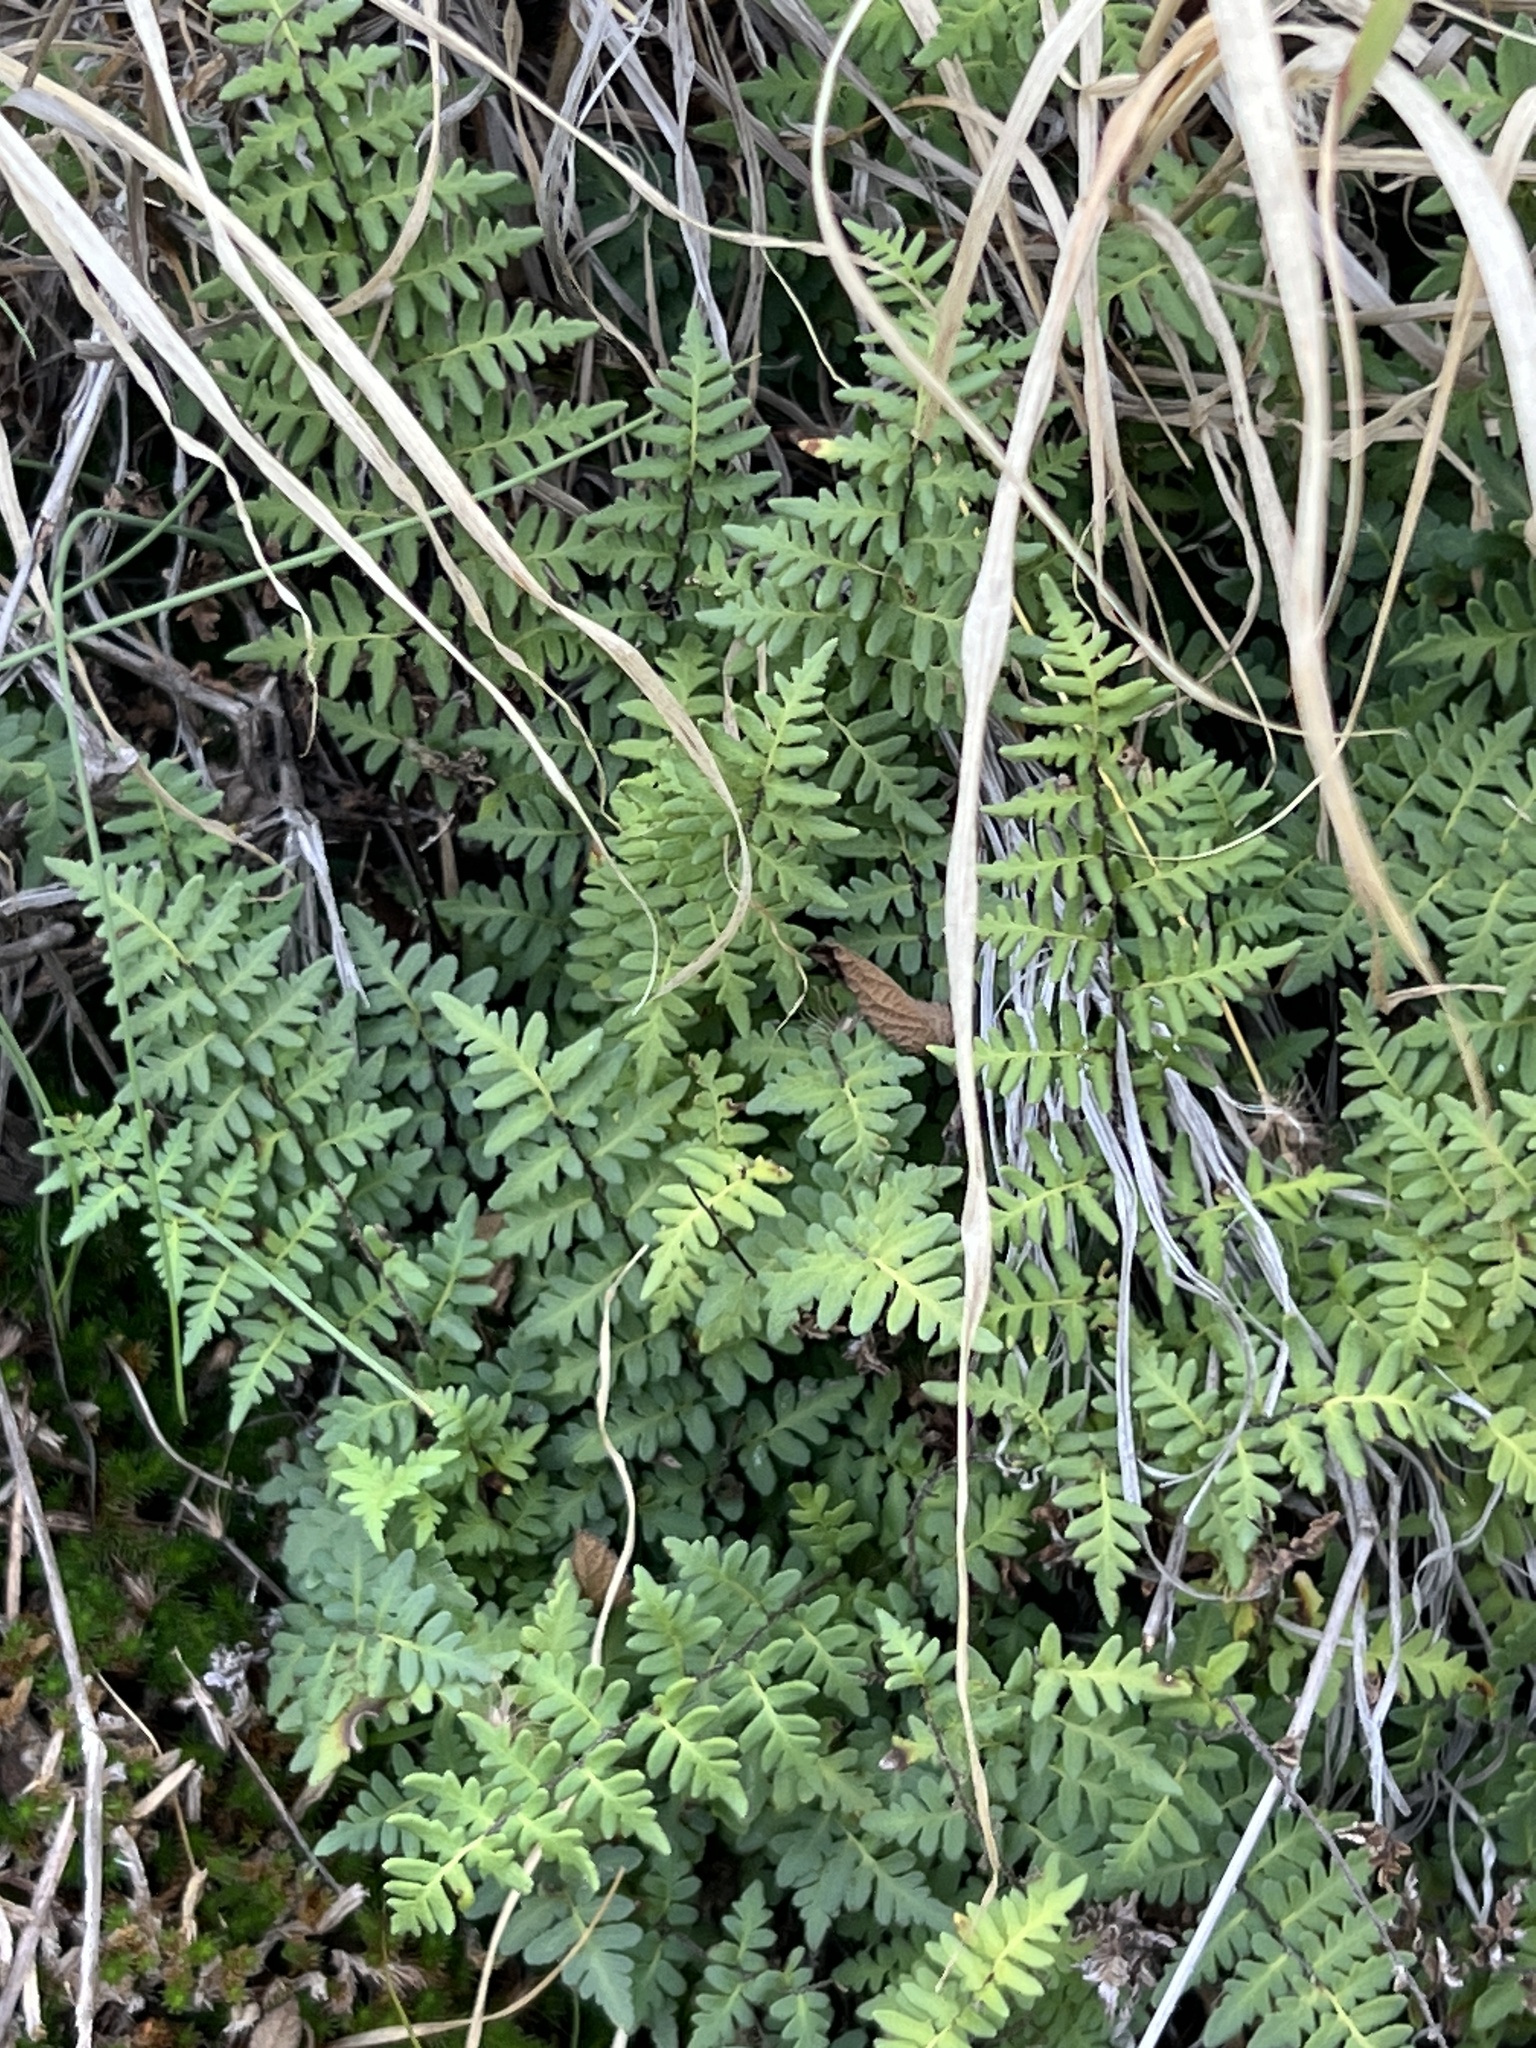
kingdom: Plantae
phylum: Tracheophyta
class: Polypodiopsida
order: Polypodiales
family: Pteridaceae
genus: Myriopteris
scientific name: Myriopteris alabamensis
